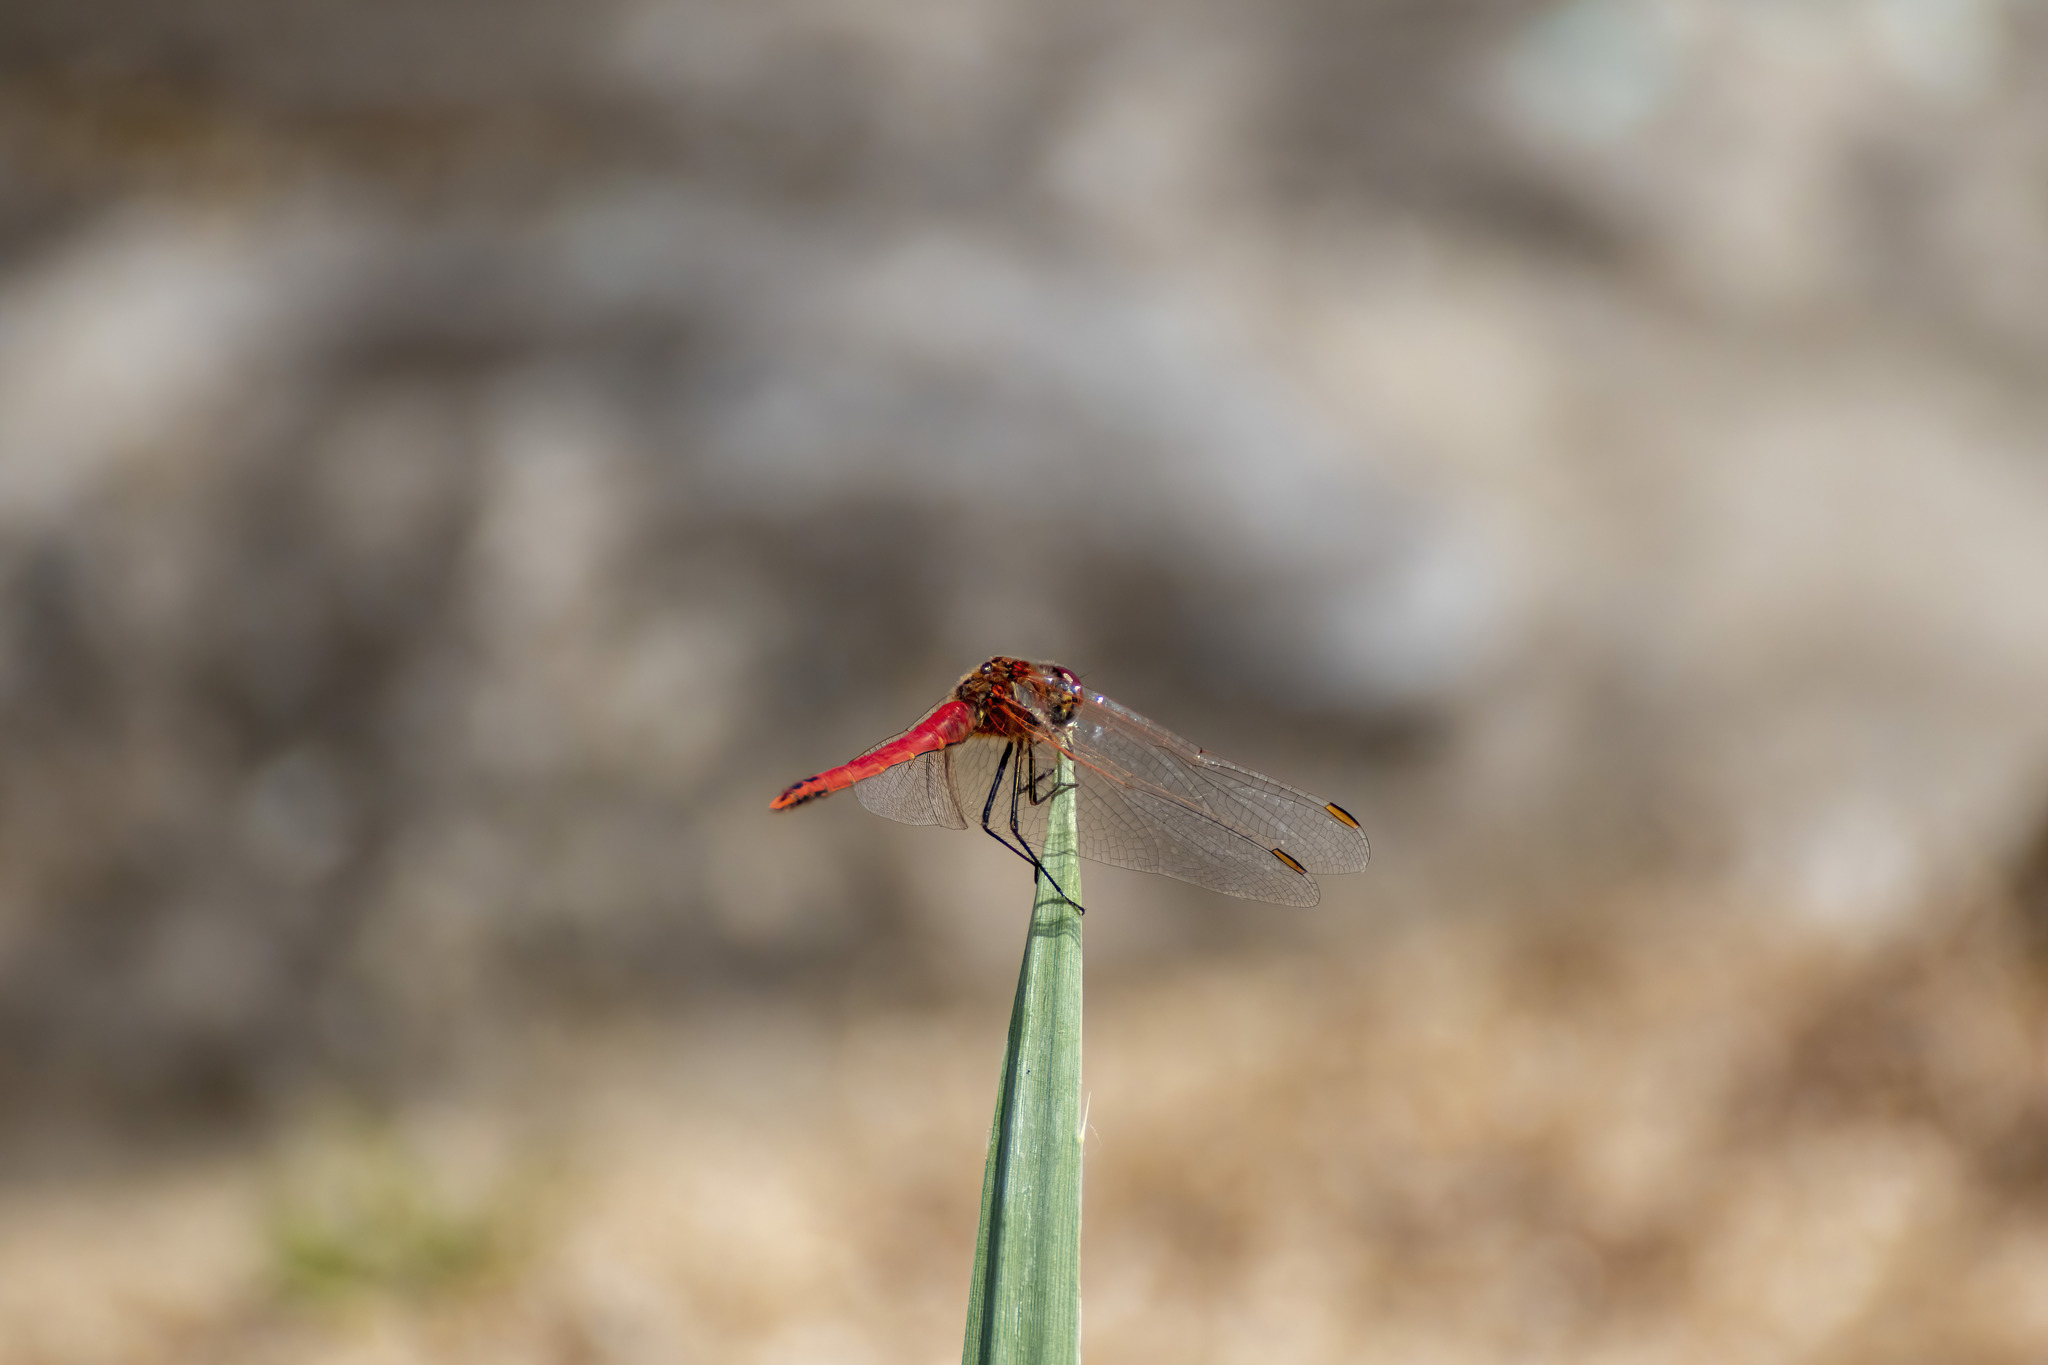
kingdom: Animalia
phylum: Arthropoda
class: Insecta
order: Odonata
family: Libellulidae
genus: Sympetrum
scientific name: Sympetrum fonscolombii
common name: Red-veined darter
